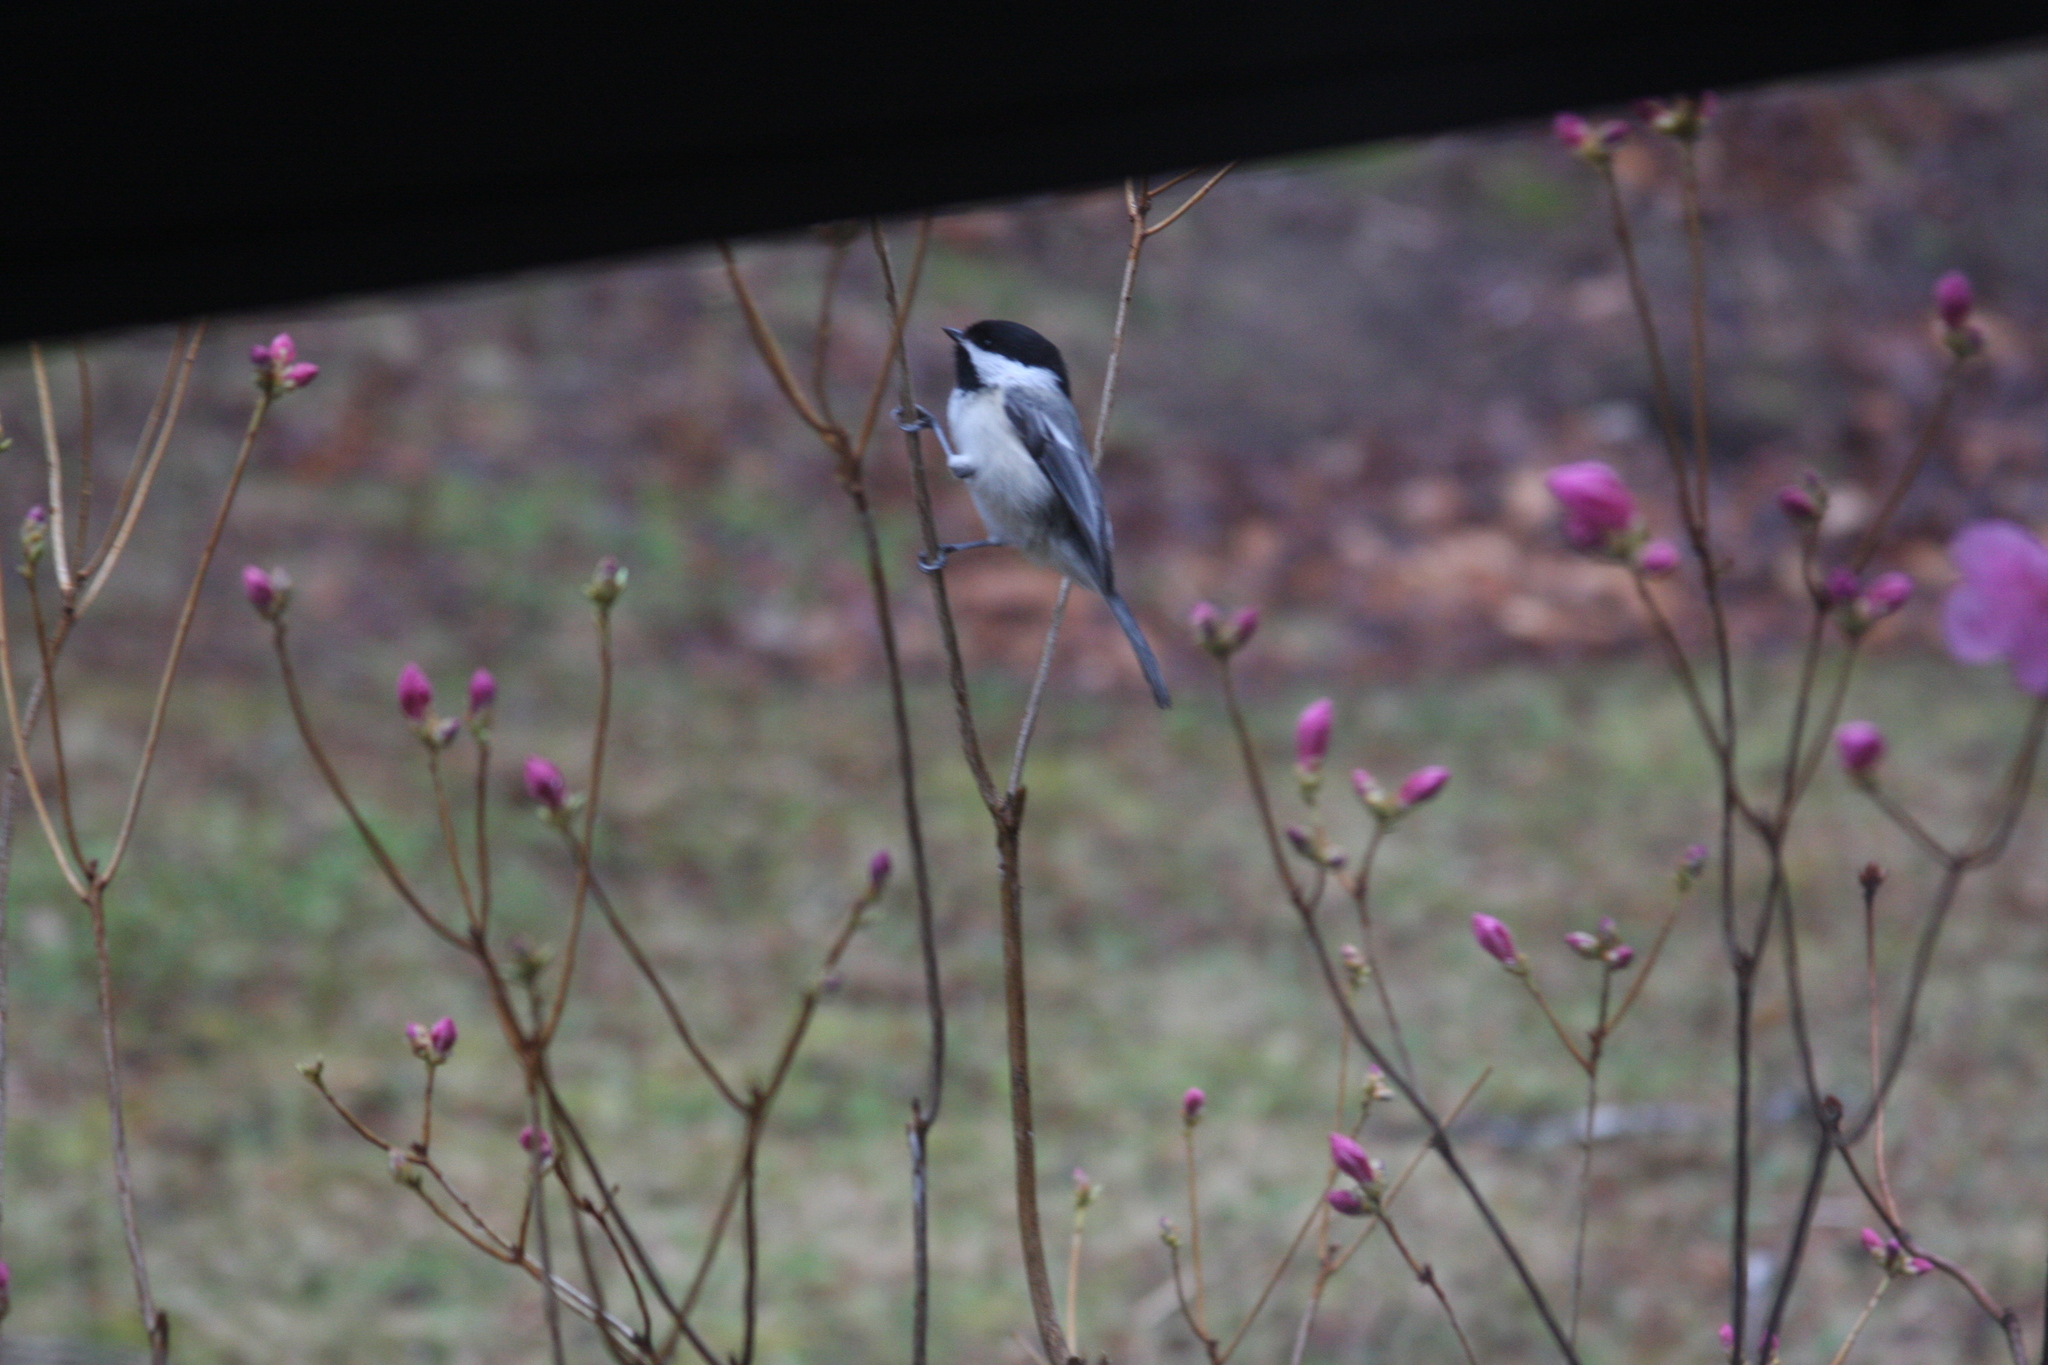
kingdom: Animalia
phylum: Chordata
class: Aves
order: Passeriformes
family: Paridae
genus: Poecile
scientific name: Poecile atricapillus
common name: Black-capped chickadee
